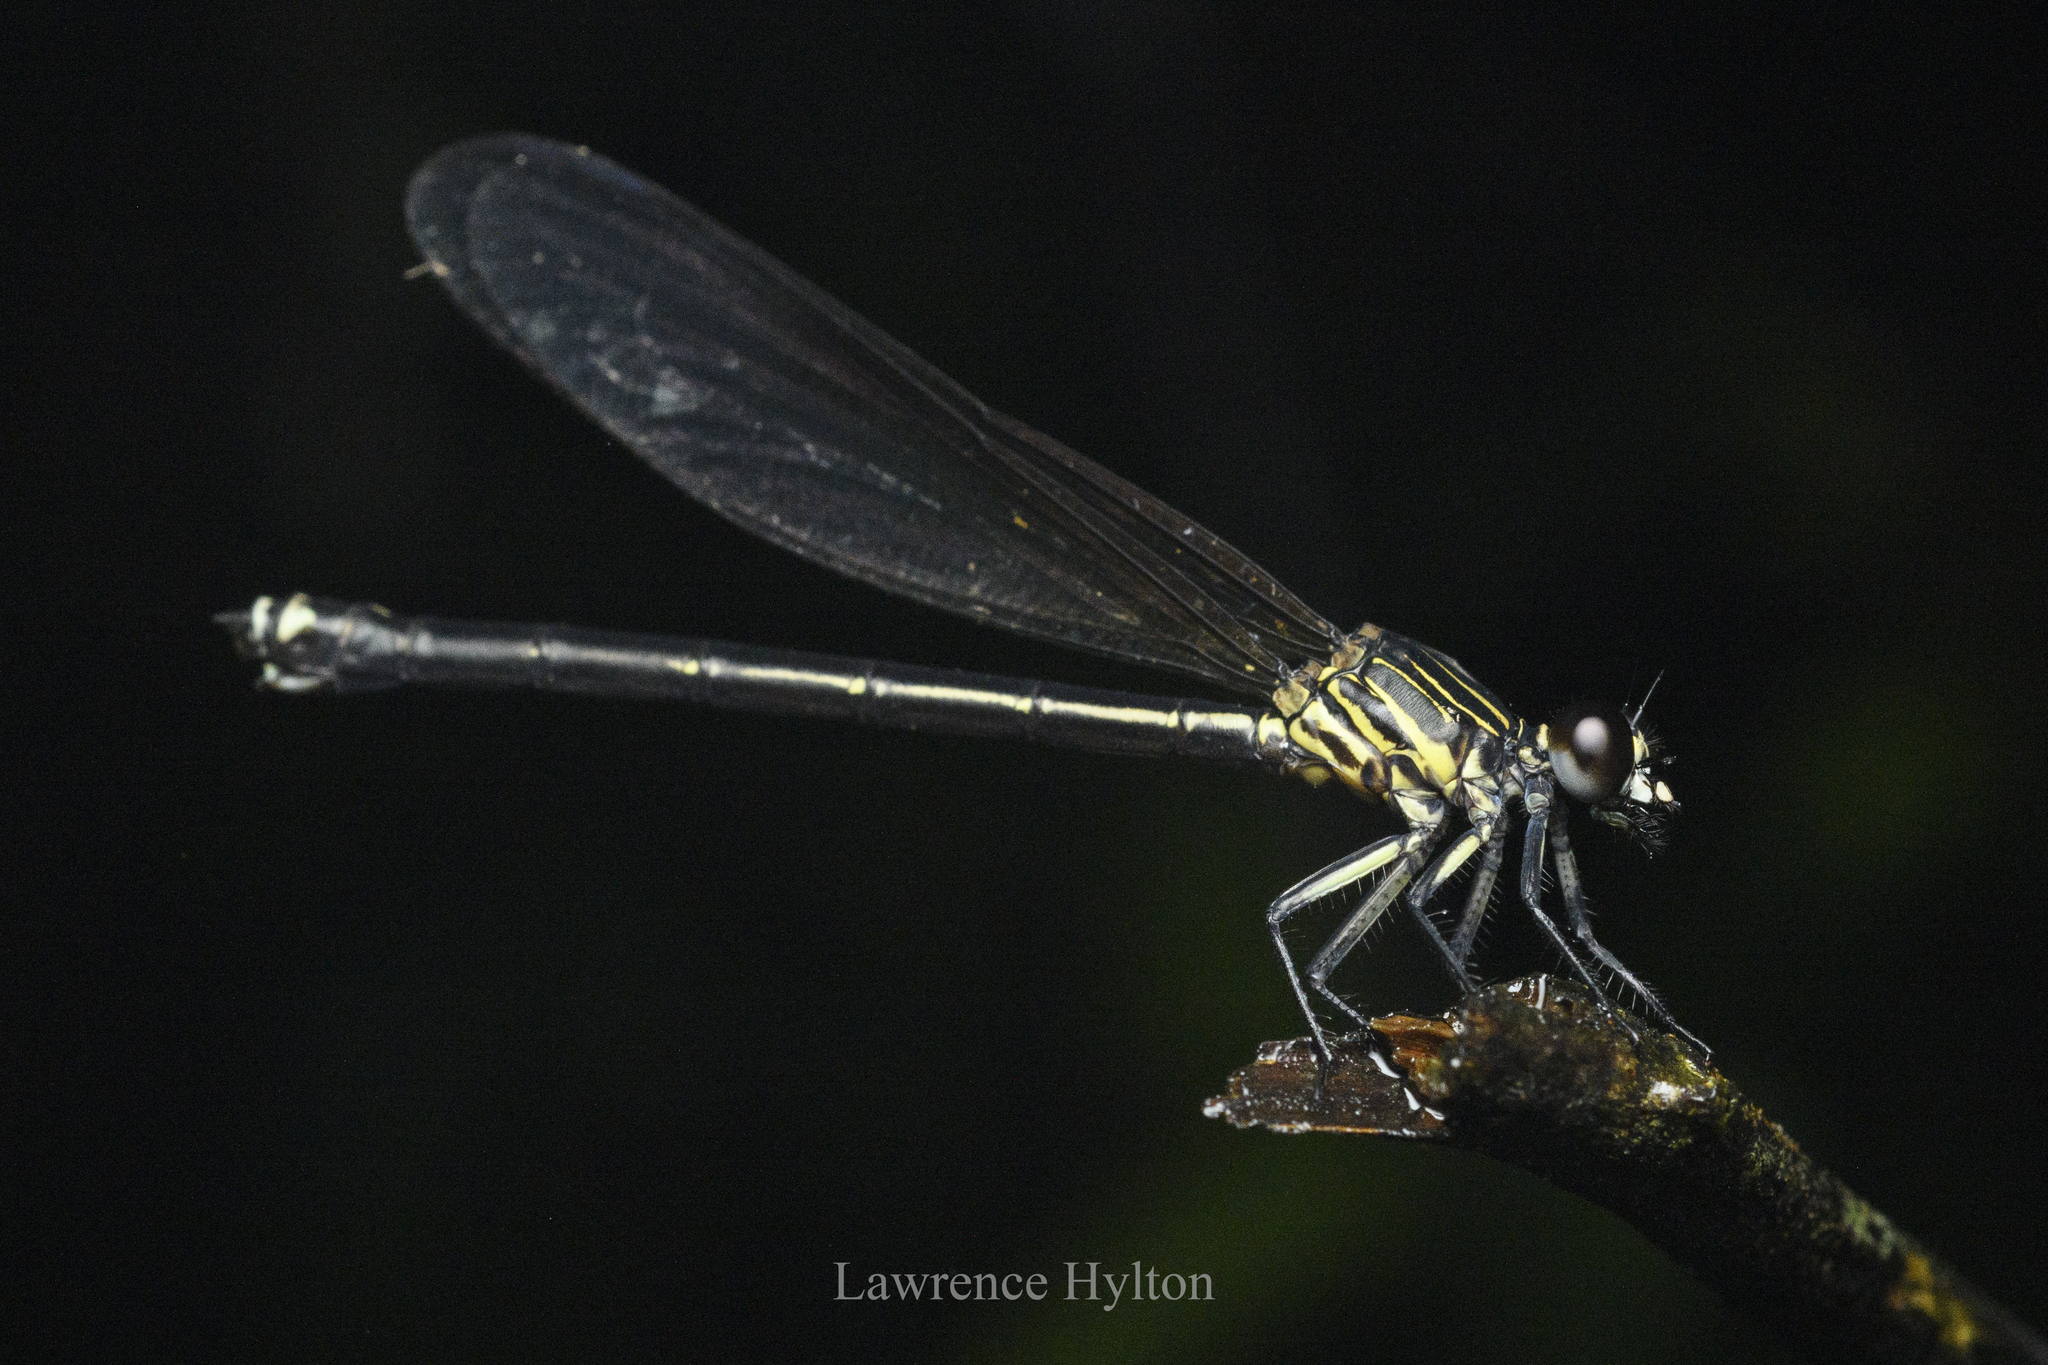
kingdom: Animalia
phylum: Arthropoda
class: Insecta
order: Odonata
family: Euphaeidae
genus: Euphaea
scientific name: Euphaea decorata
